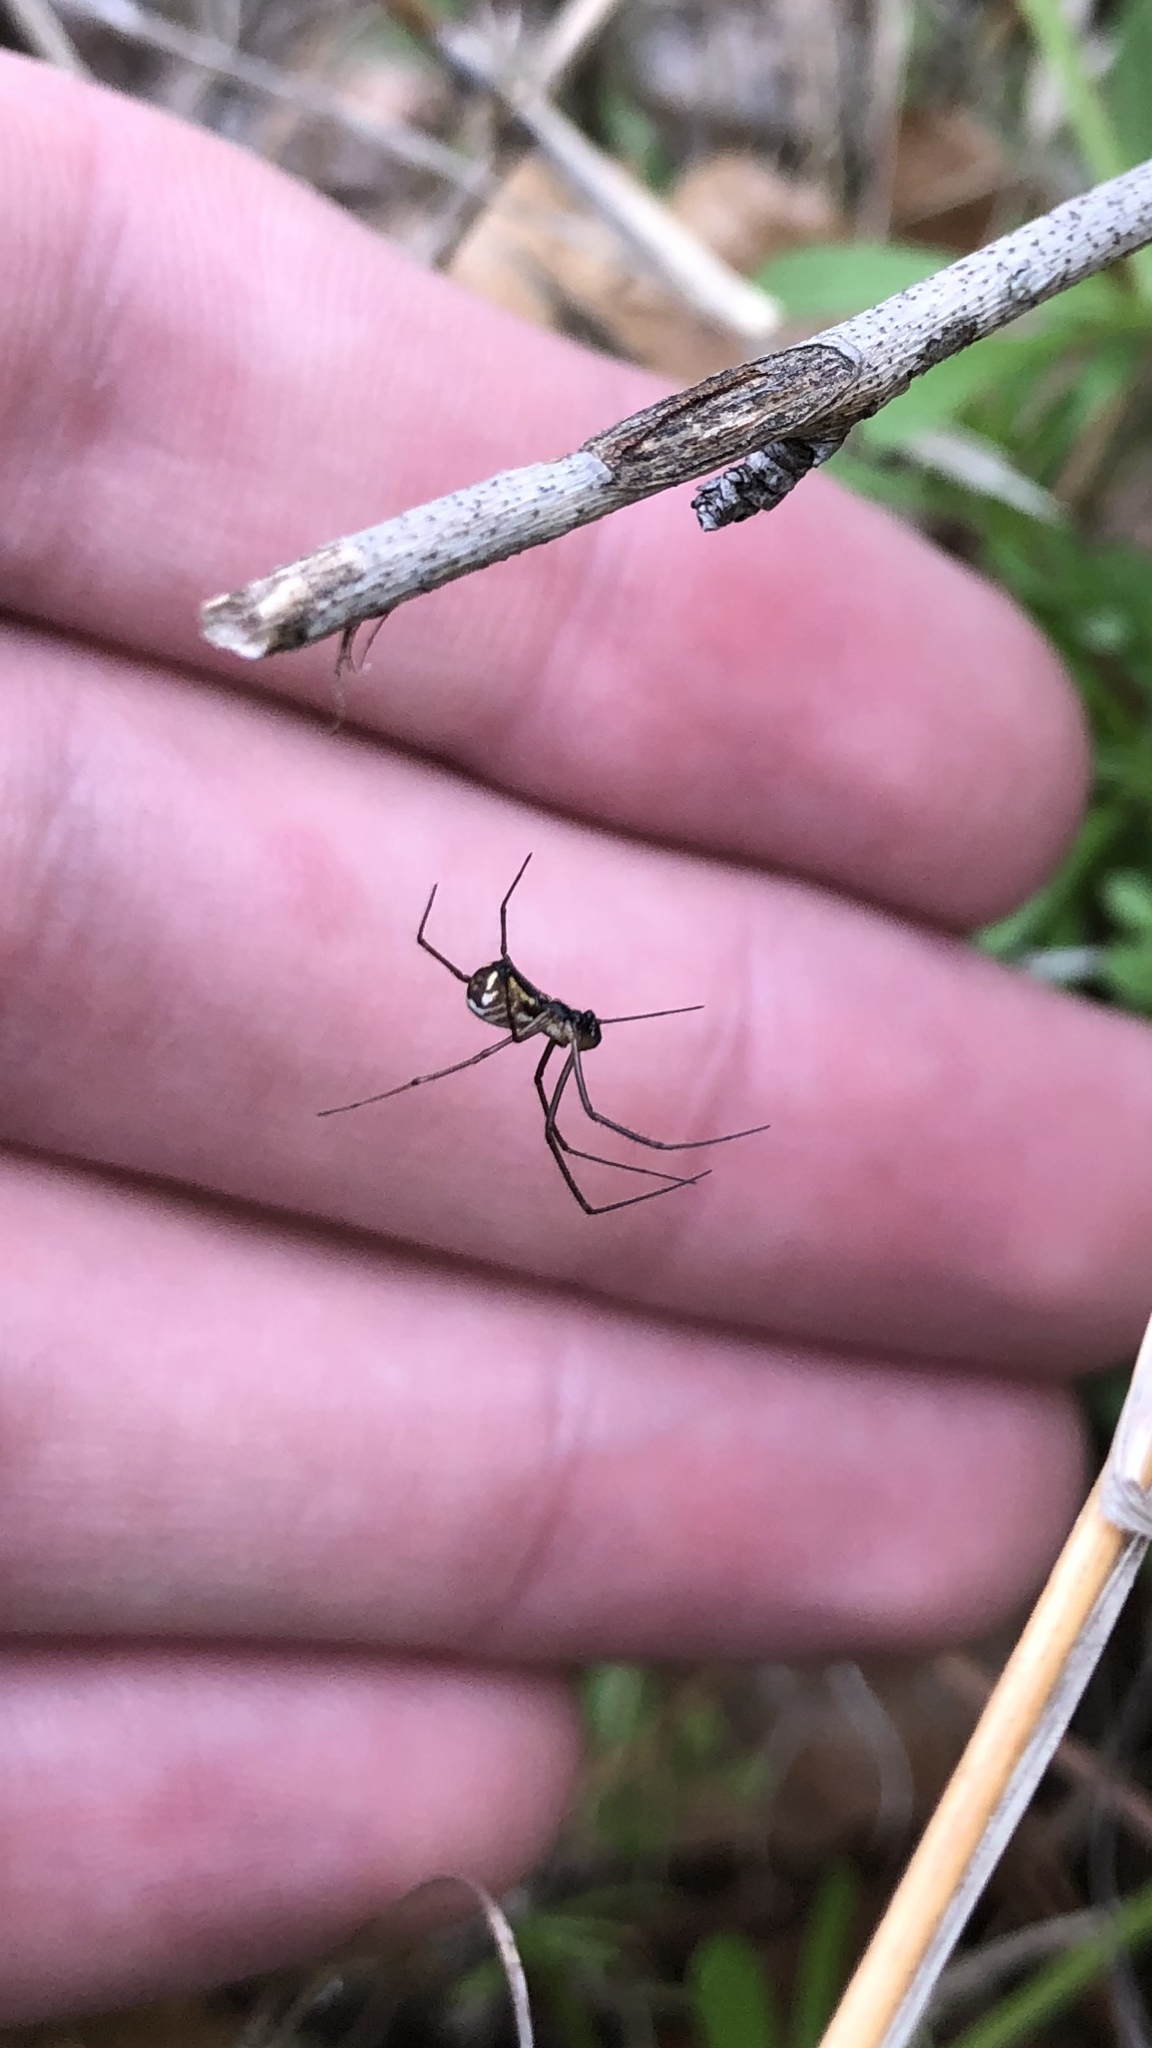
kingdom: Animalia
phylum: Arthropoda
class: Arachnida
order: Araneae
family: Linyphiidae
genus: Neriene
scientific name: Neriene radiata
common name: Filmy dome spider
